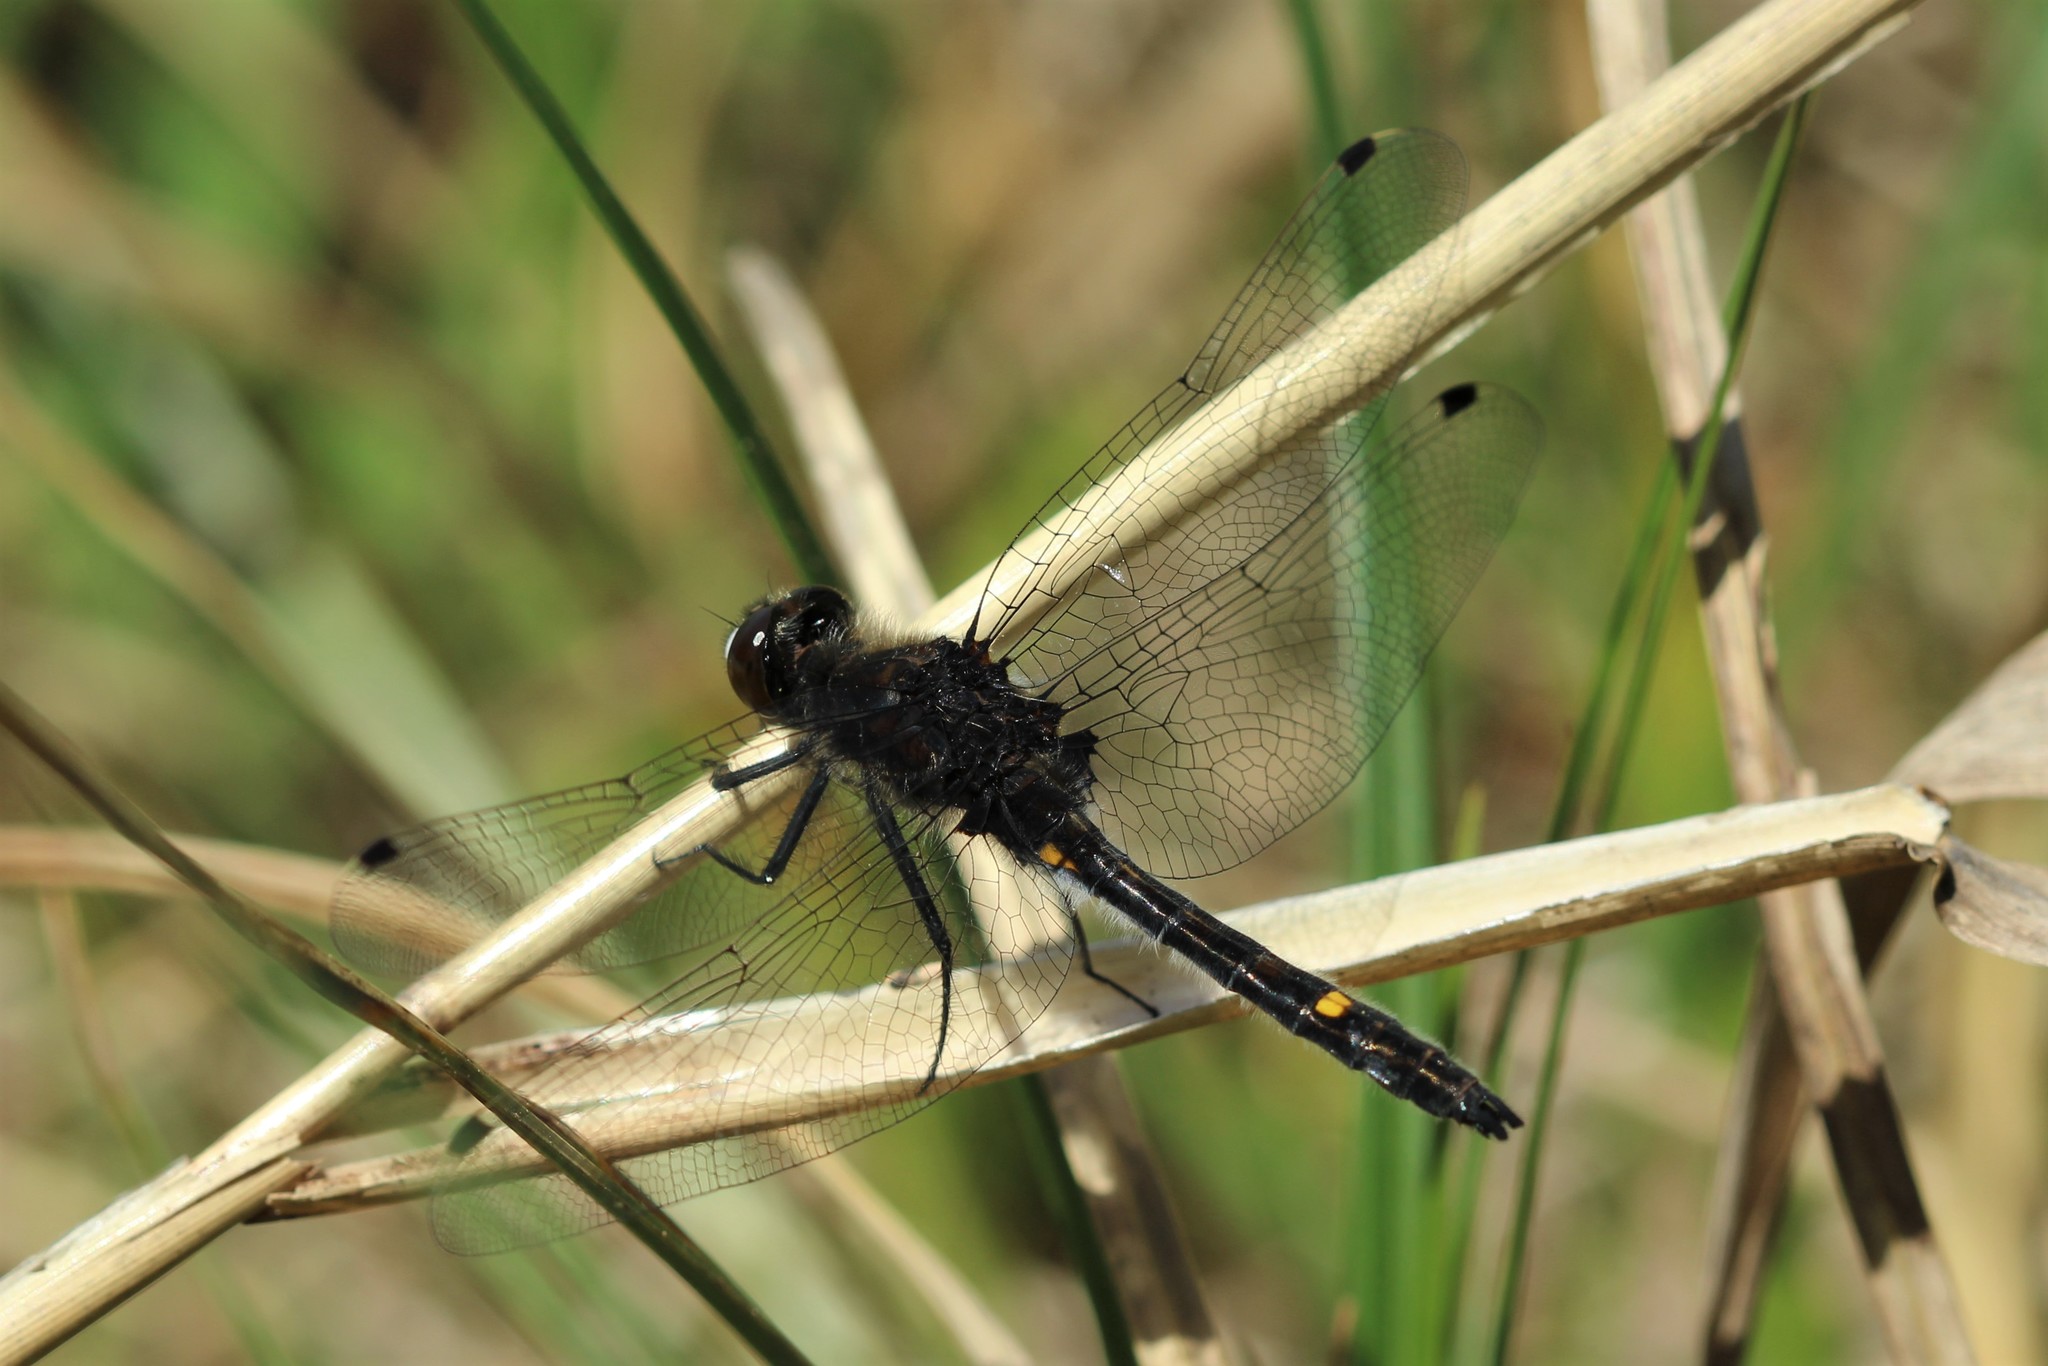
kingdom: Animalia
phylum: Arthropoda
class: Insecta
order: Odonata
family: Libellulidae
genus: Leucorrhinia
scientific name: Leucorrhinia intacta
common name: Dot-tailed whiteface
